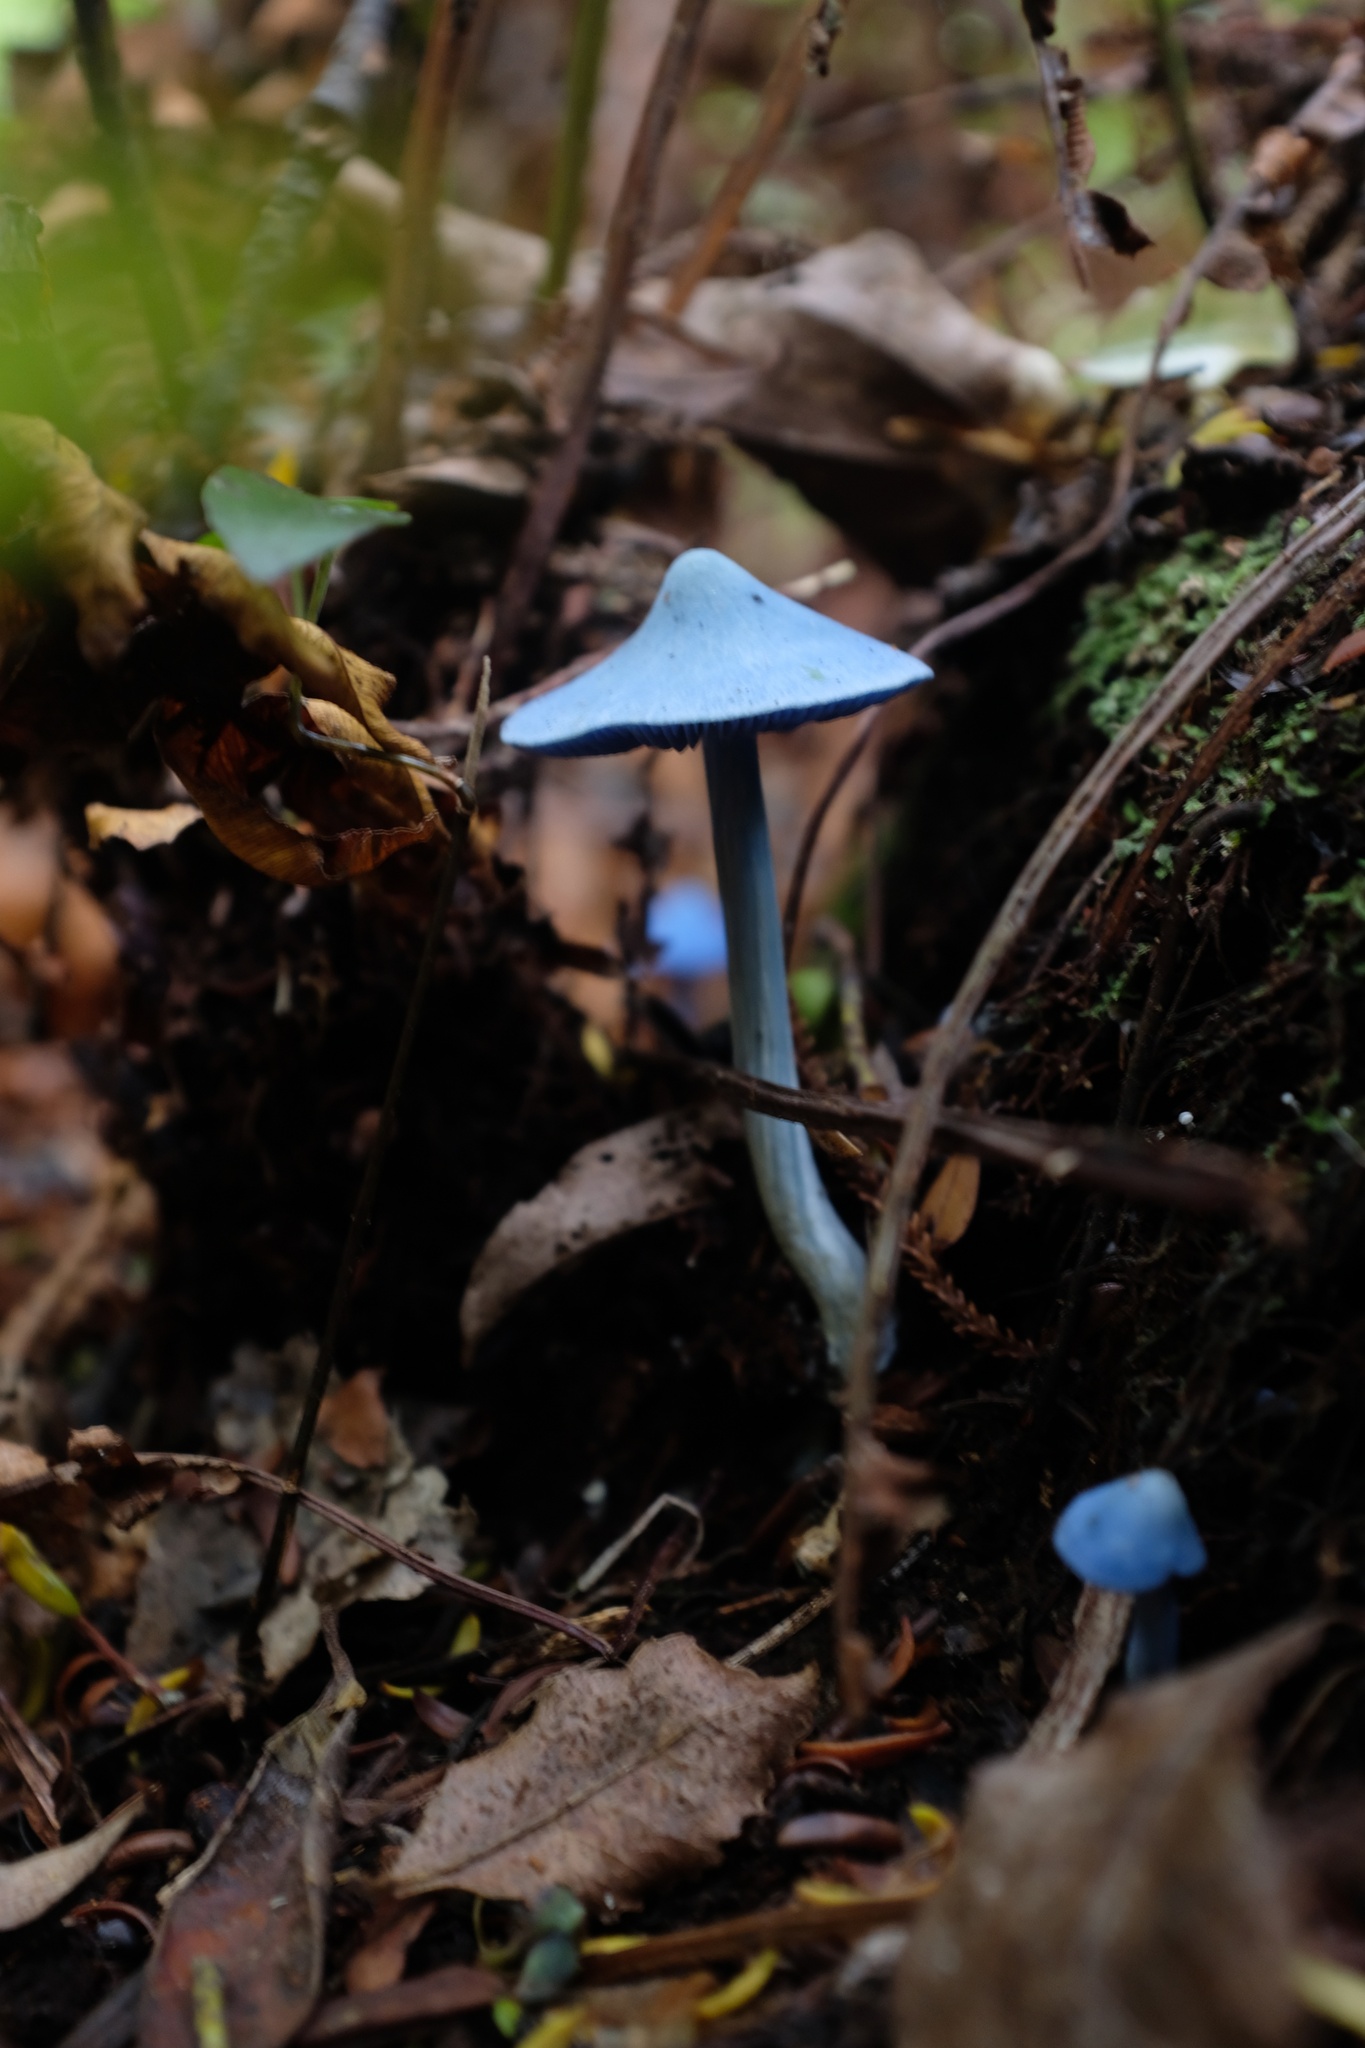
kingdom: Fungi
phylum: Basidiomycota
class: Agaricomycetes
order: Agaricales
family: Entolomataceae
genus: Entoloma
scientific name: Entoloma hochstetteri
